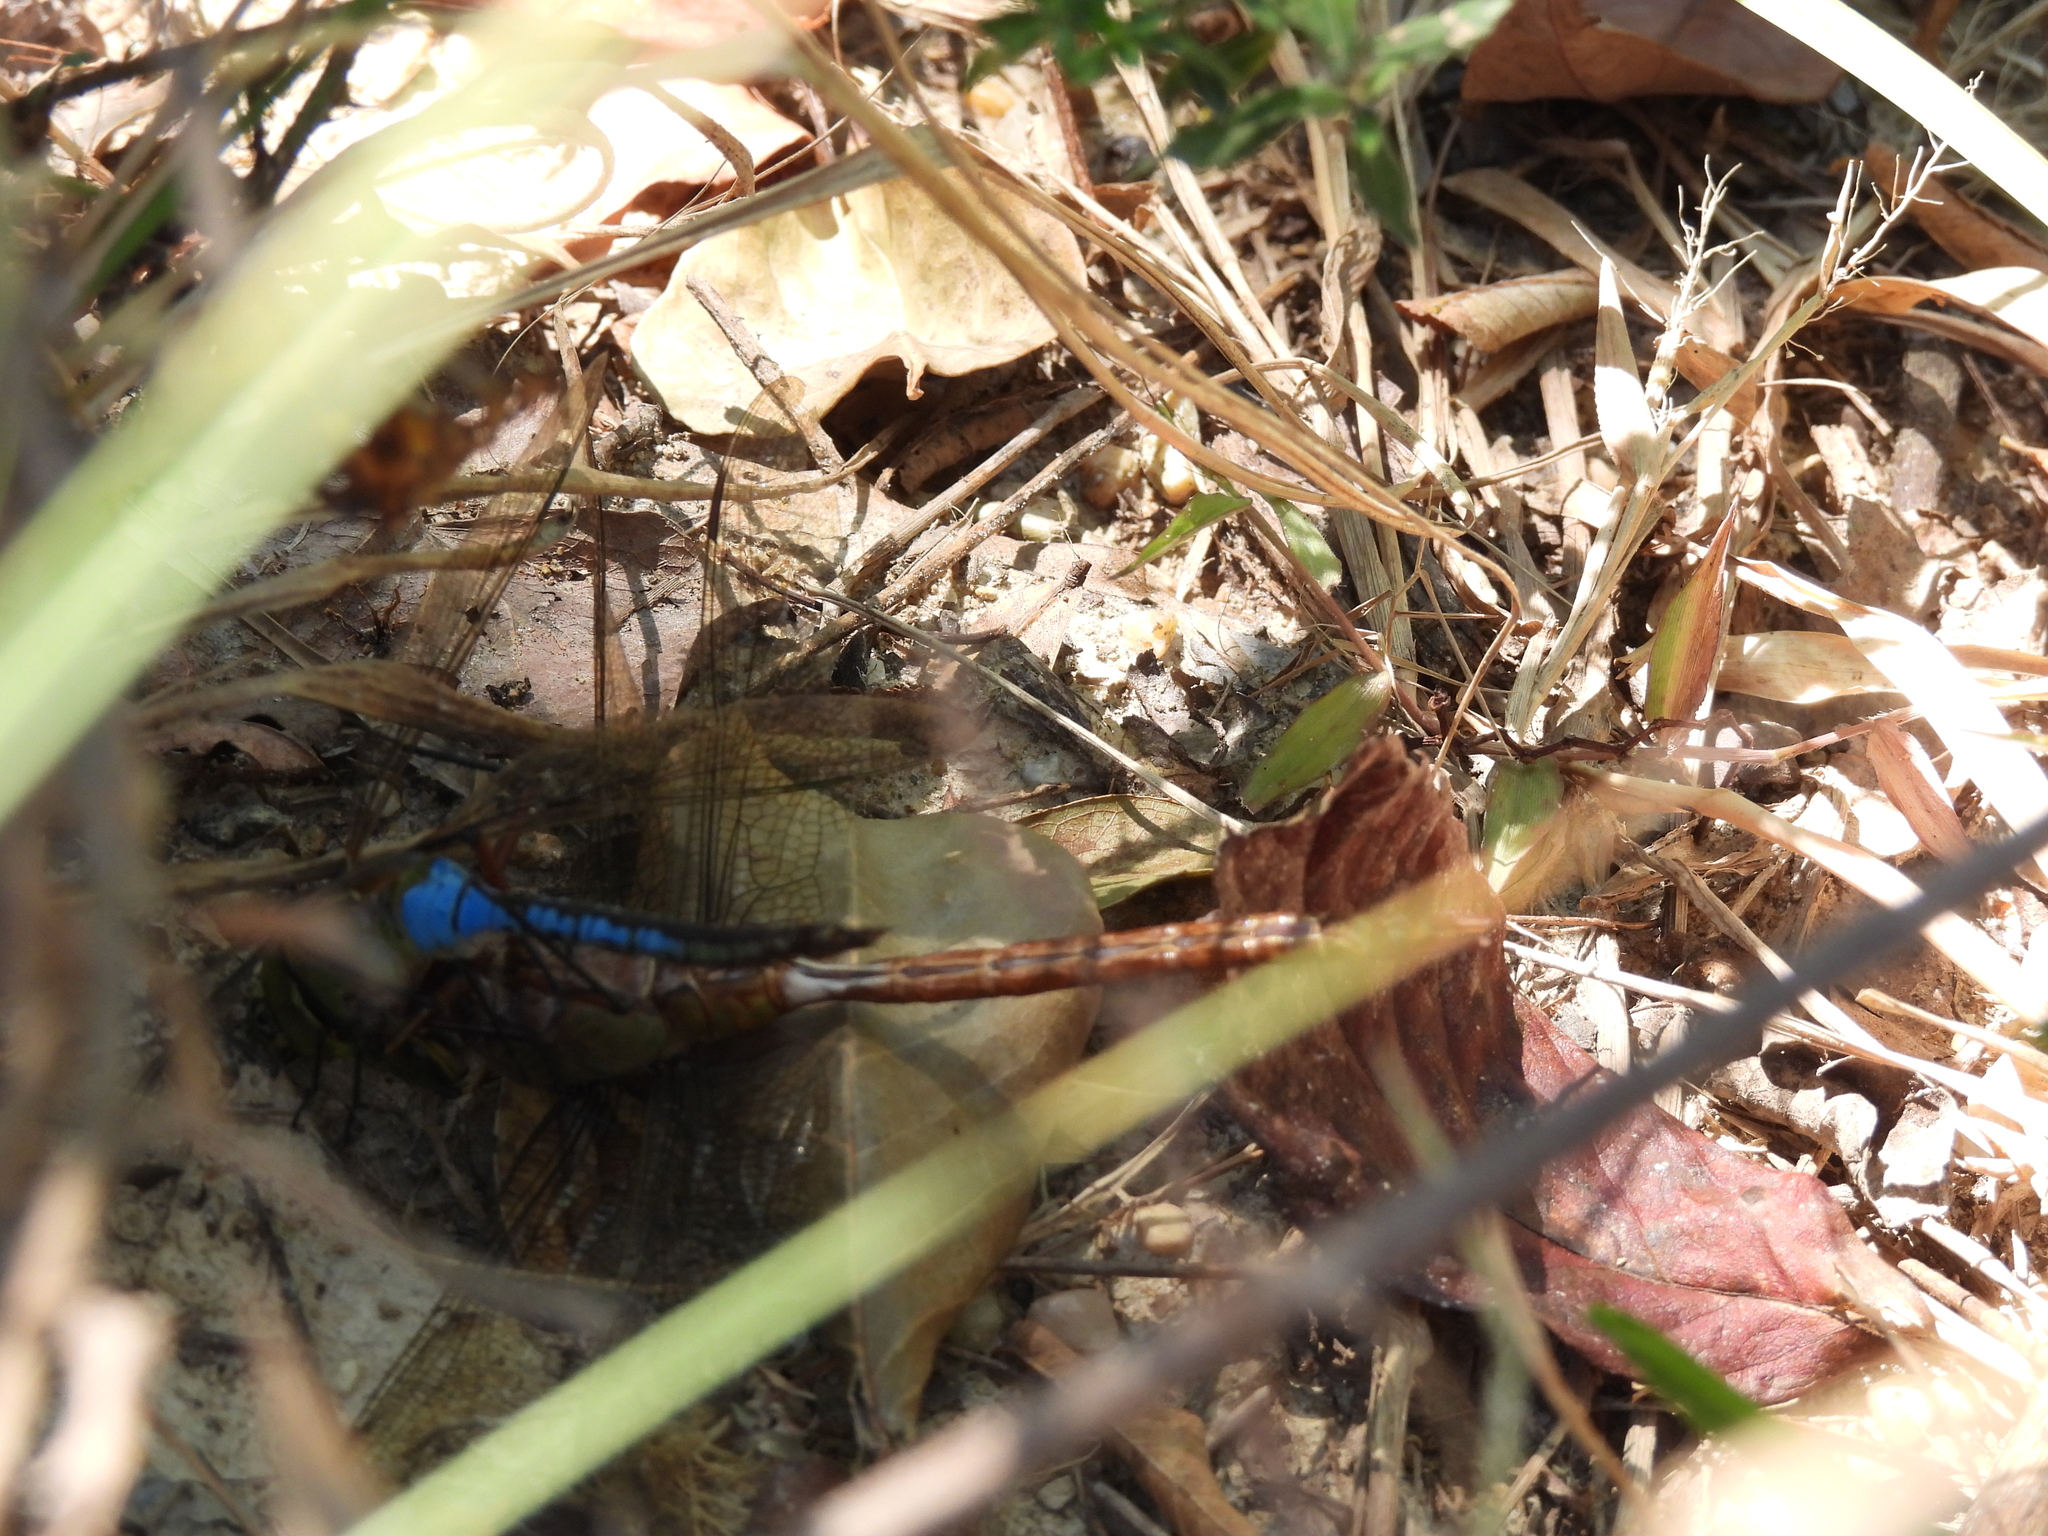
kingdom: Animalia
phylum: Arthropoda
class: Insecta
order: Odonata
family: Aeshnidae
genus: Anax
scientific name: Anax junius
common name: Common green darner
